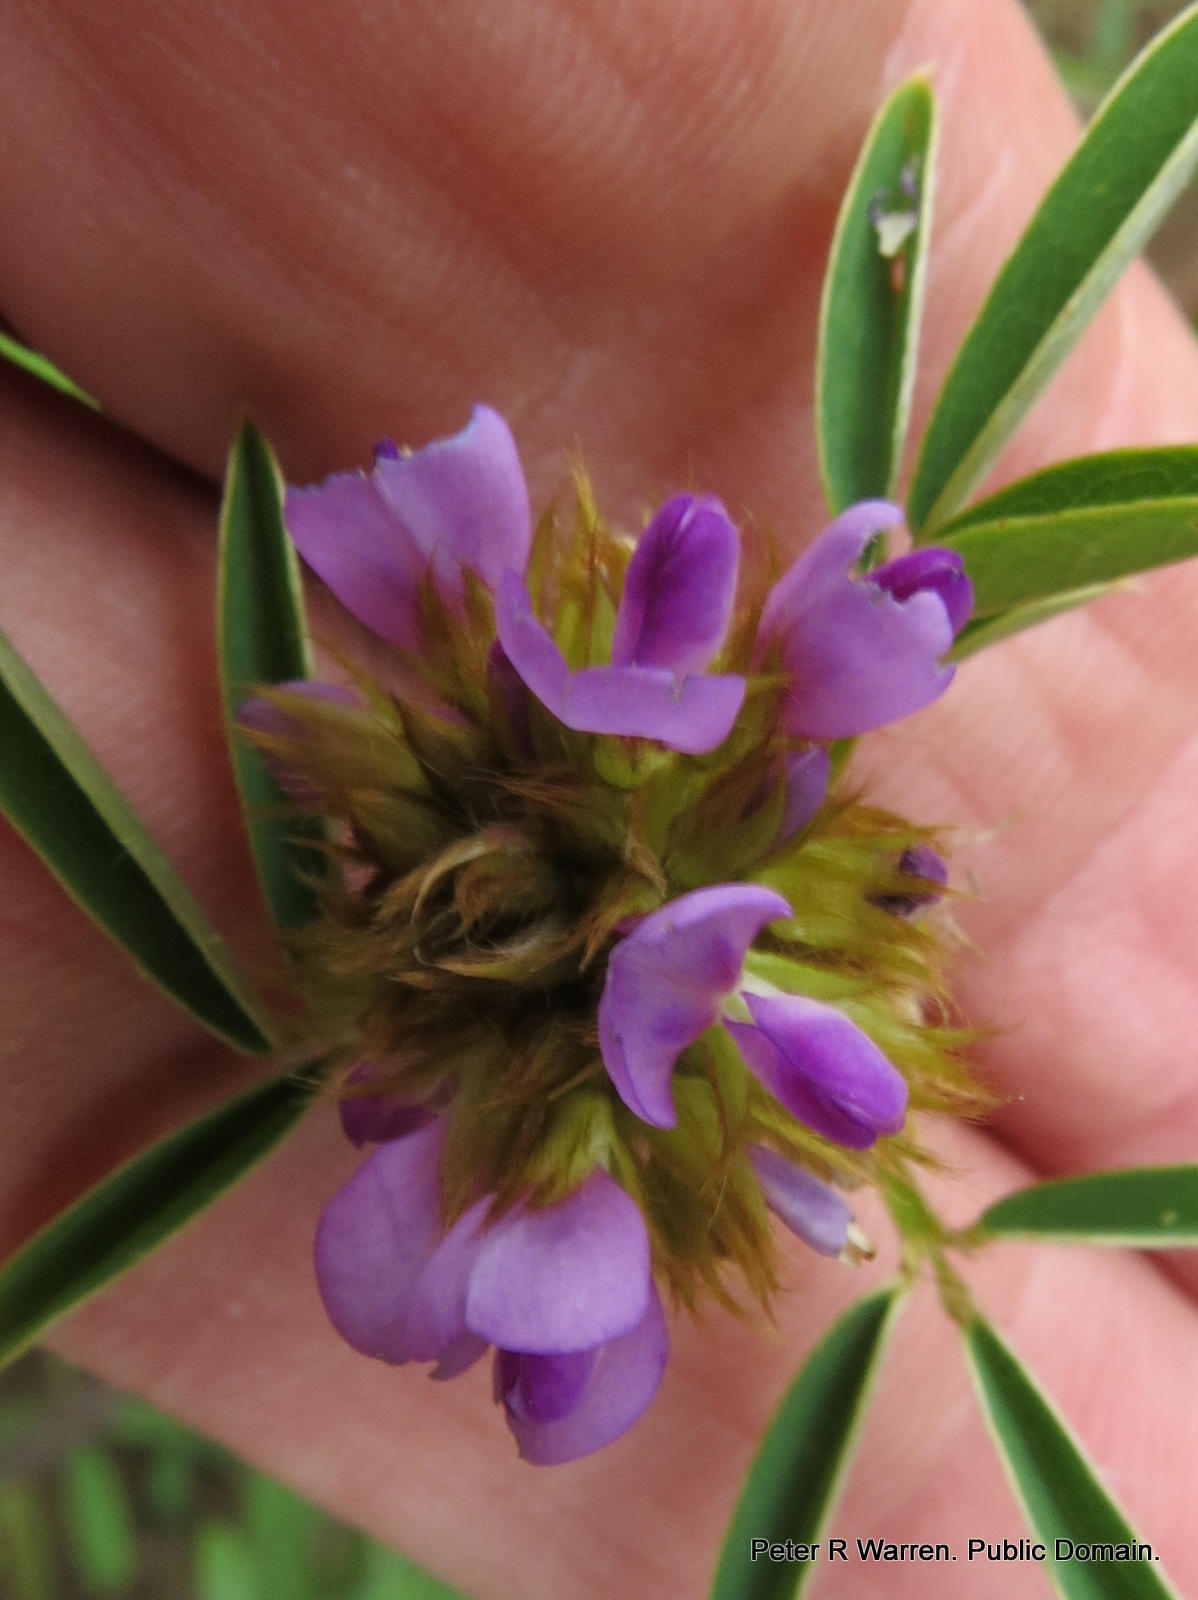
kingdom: Plantae
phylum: Tracheophyta
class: Magnoliopsida
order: Fabales
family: Fabaceae
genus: Grona
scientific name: Grona caffra
